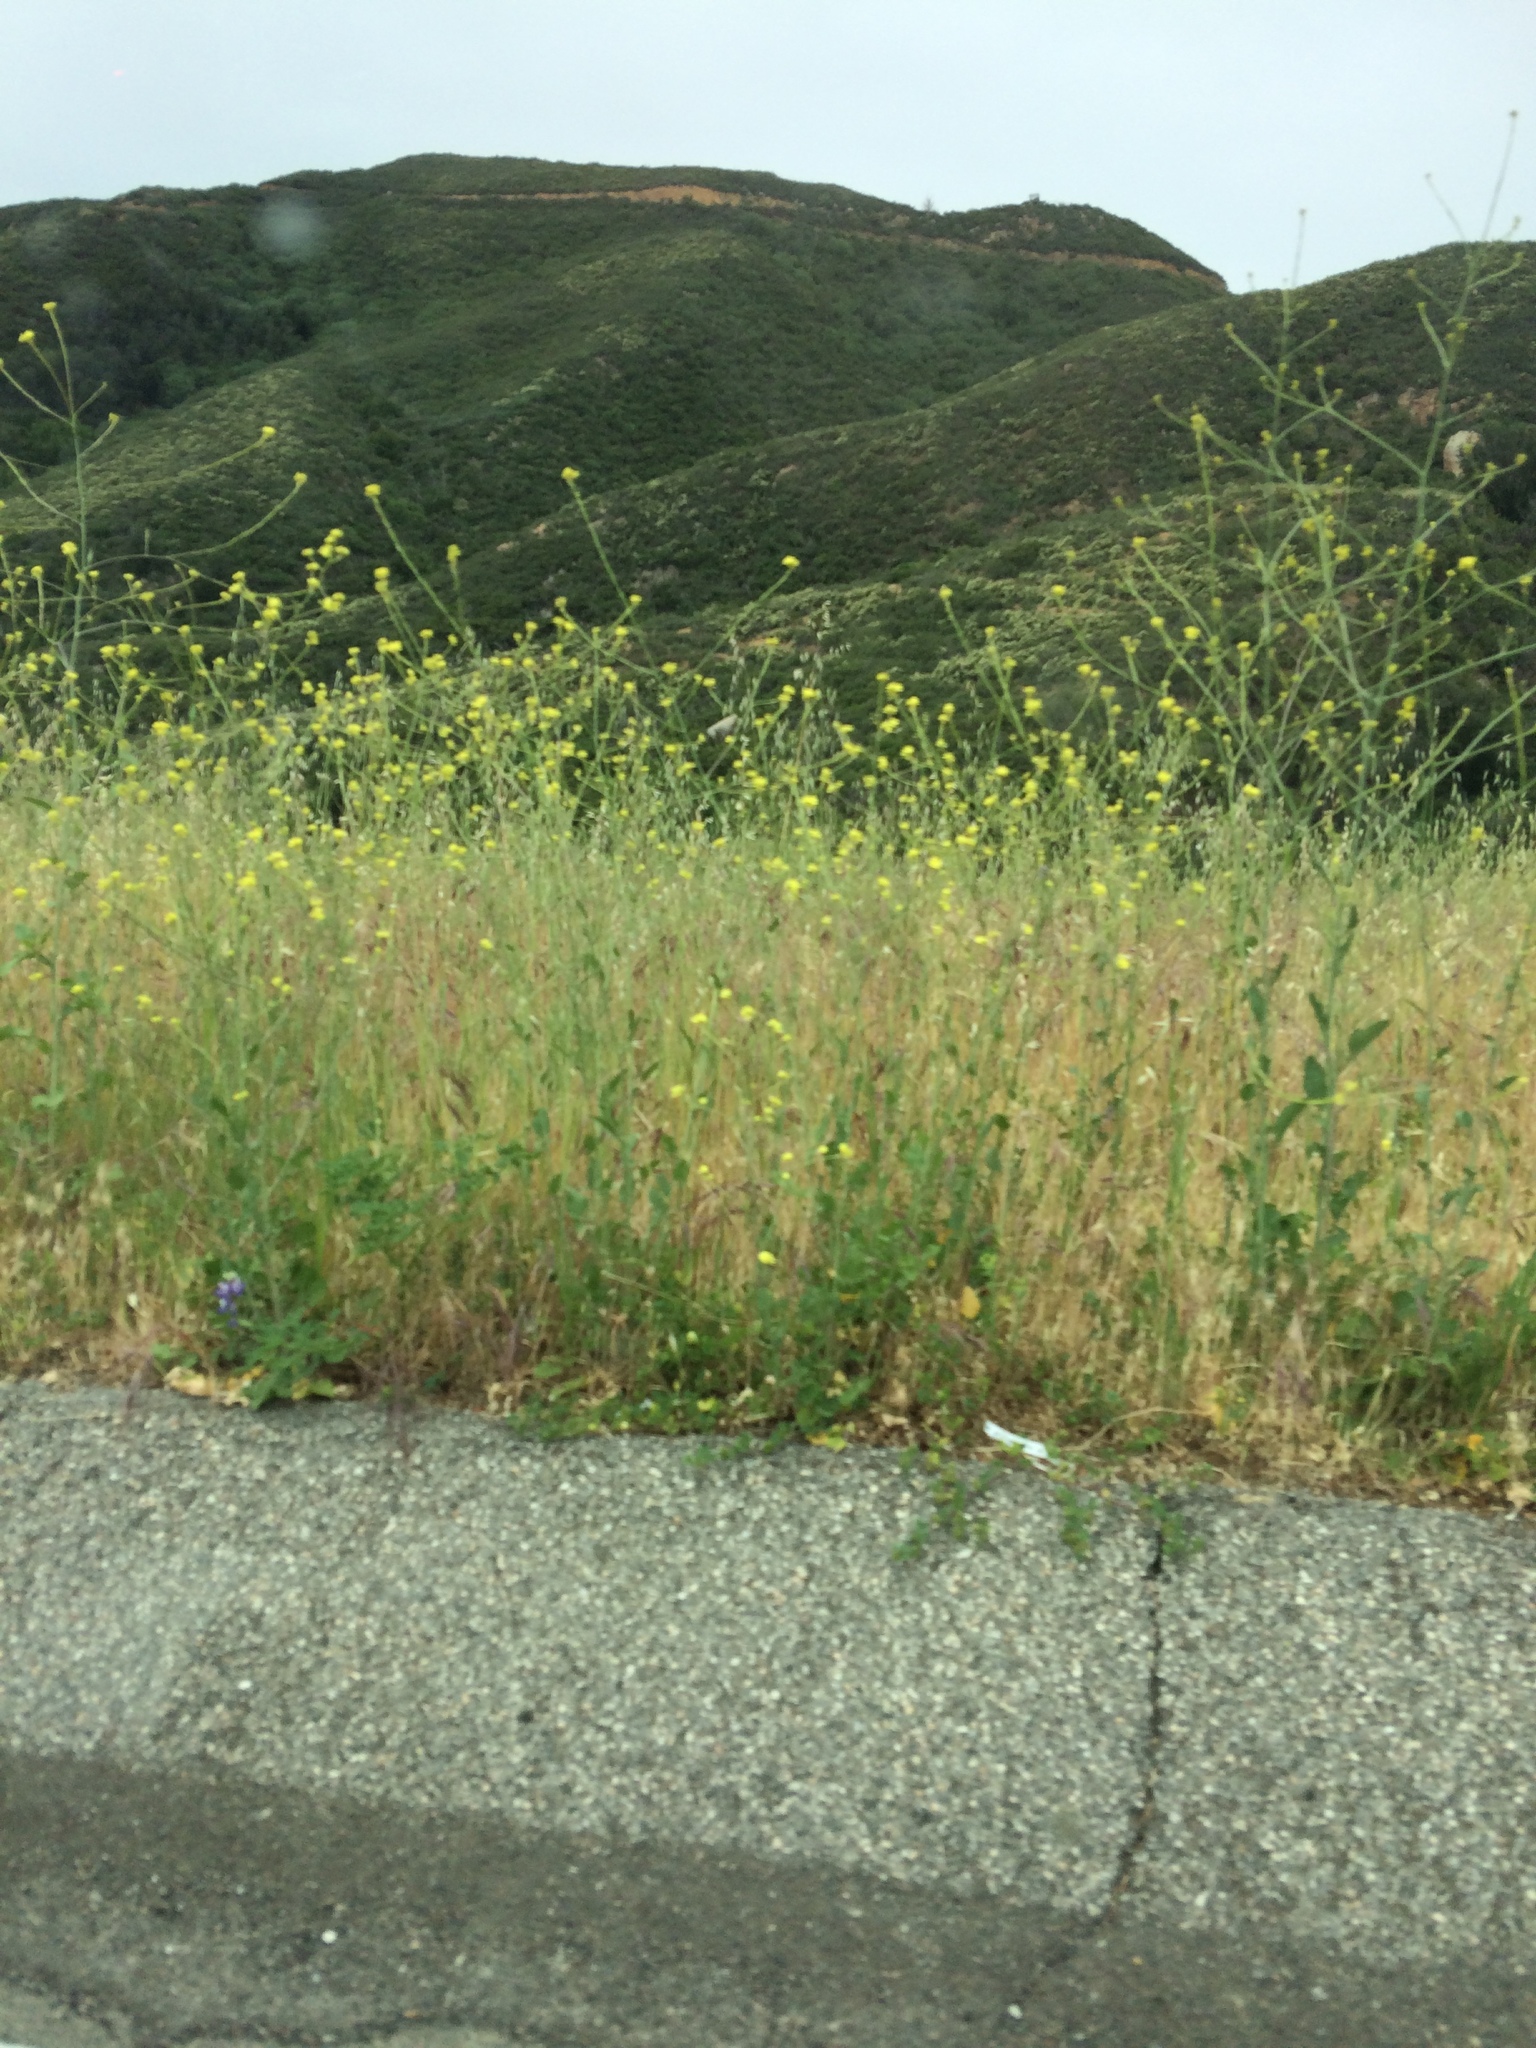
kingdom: Plantae
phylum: Tracheophyta
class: Magnoliopsida
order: Brassicales
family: Brassicaceae
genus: Hirschfeldia
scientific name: Hirschfeldia incana
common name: Hoary mustard
